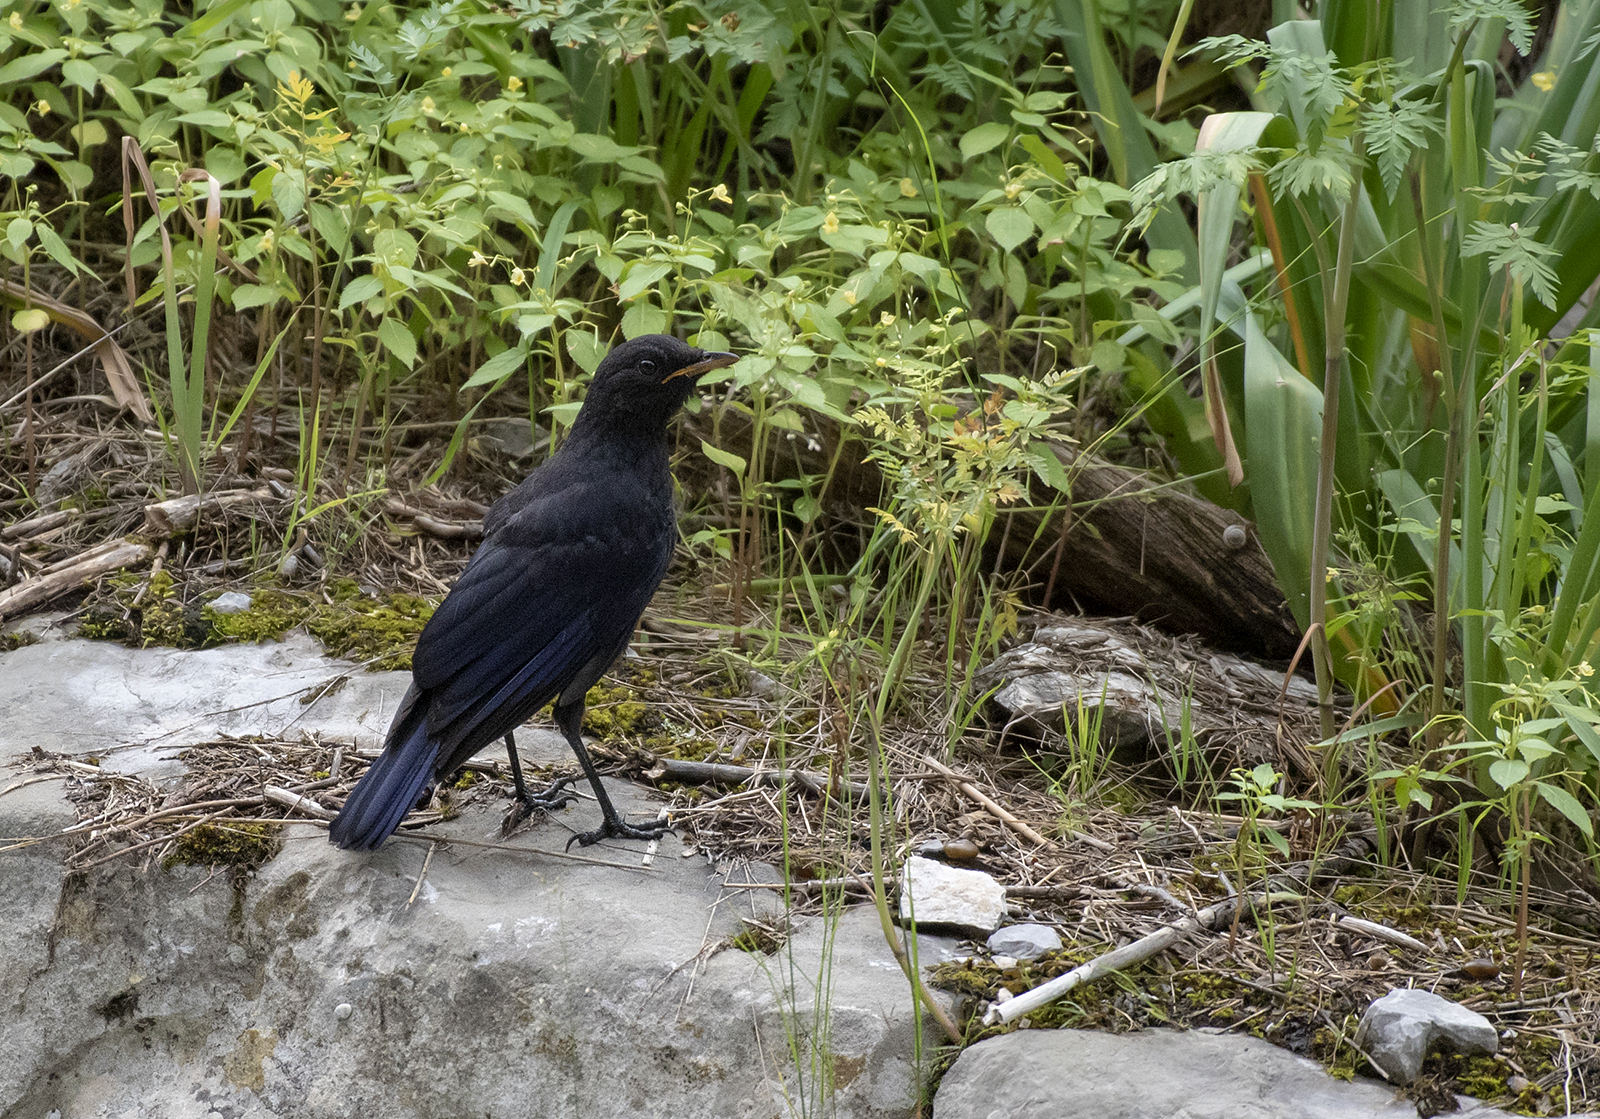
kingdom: Animalia
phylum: Chordata
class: Aves
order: Passeriformes
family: Muscicapidae
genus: Myophonus
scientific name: Myophonus caeruleus
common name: Blue whistling-thrush
